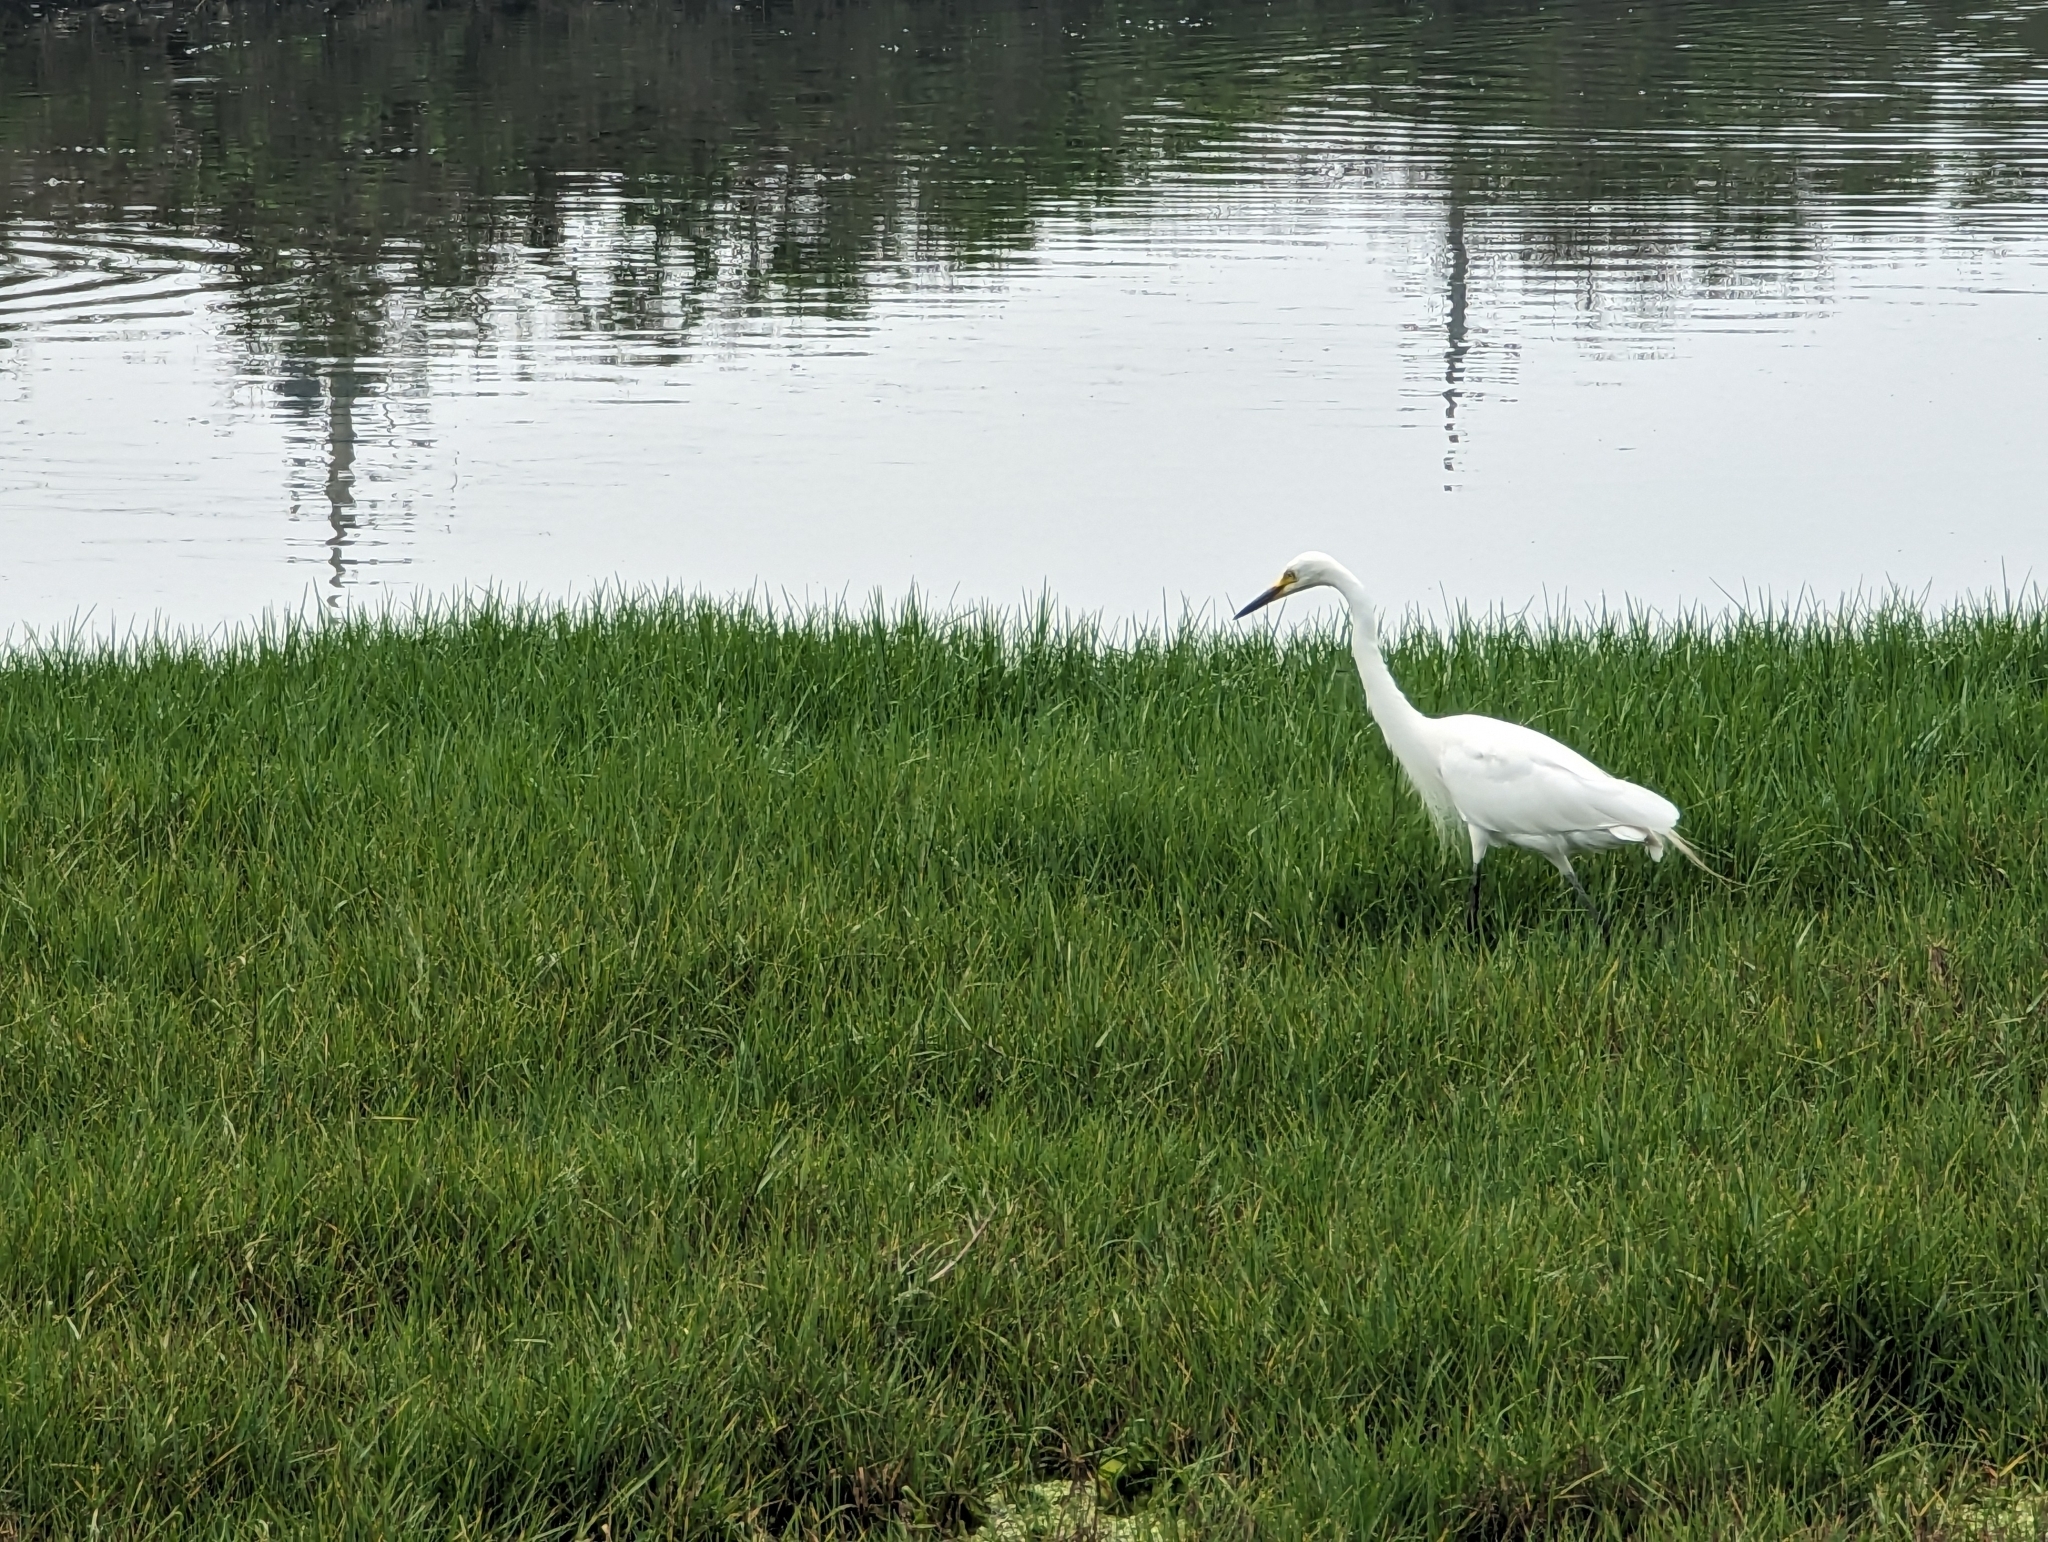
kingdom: Animalia
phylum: Chordata
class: Aves
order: Pelecaniformes
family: Ardeidae
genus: Ardea
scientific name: Ardea alba
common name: Great egret
